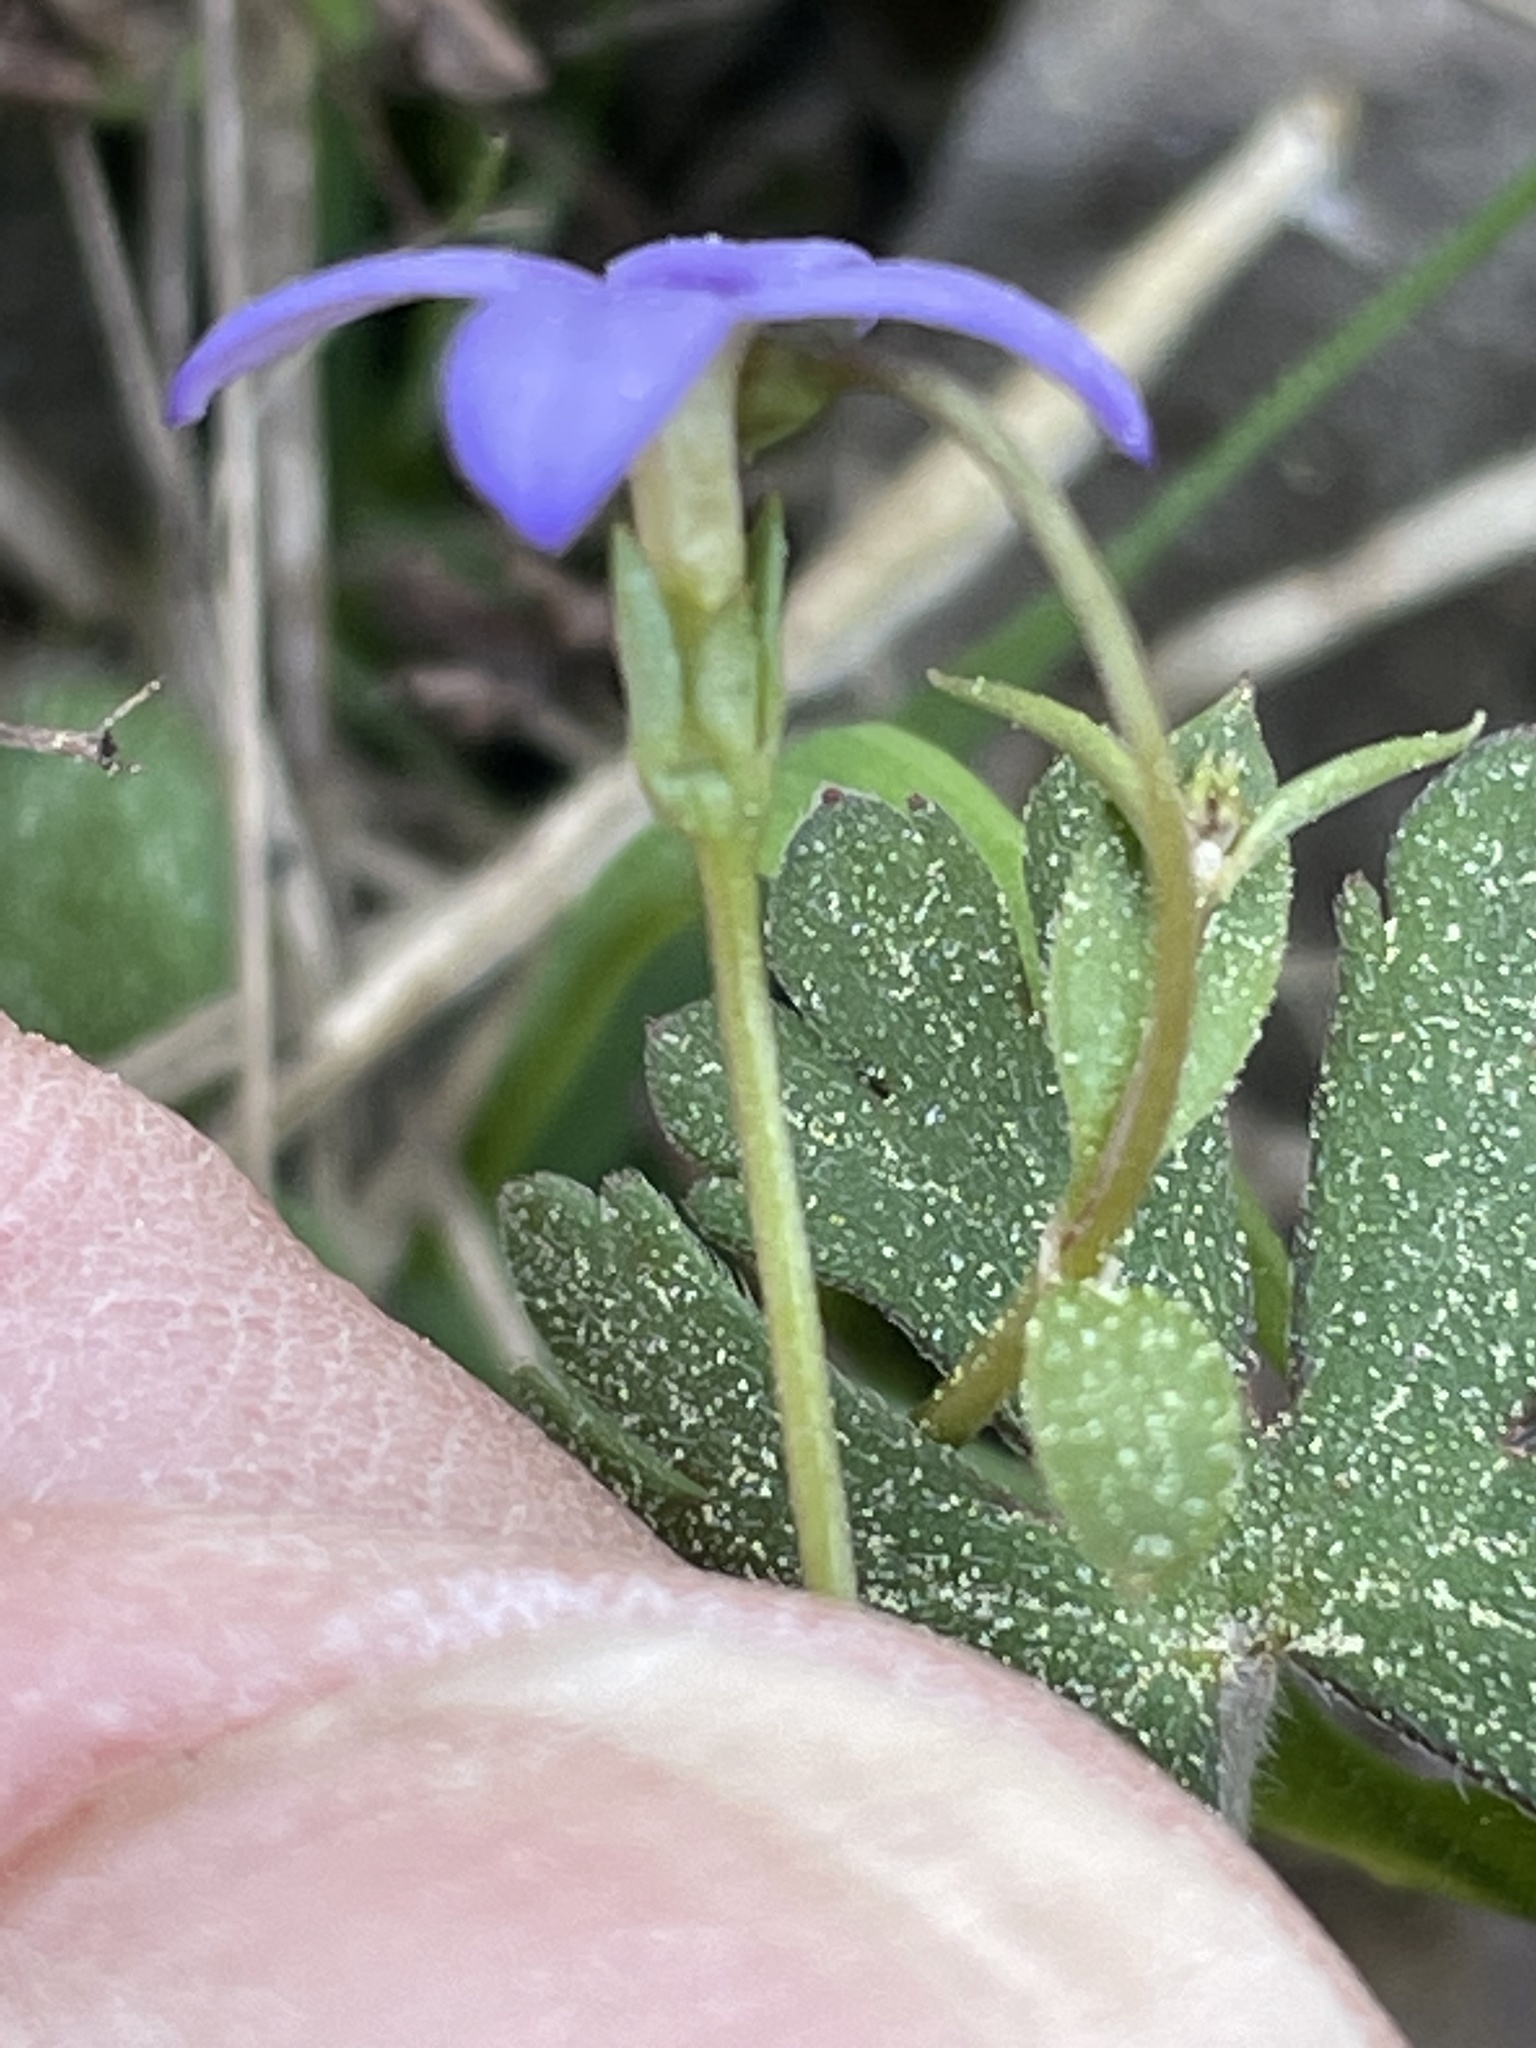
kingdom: Plantae
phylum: Tracheophyta
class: Magnoliopsida
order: Gentianales
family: Rubiaceae
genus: Houstonia
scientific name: Houstonia pusilla
